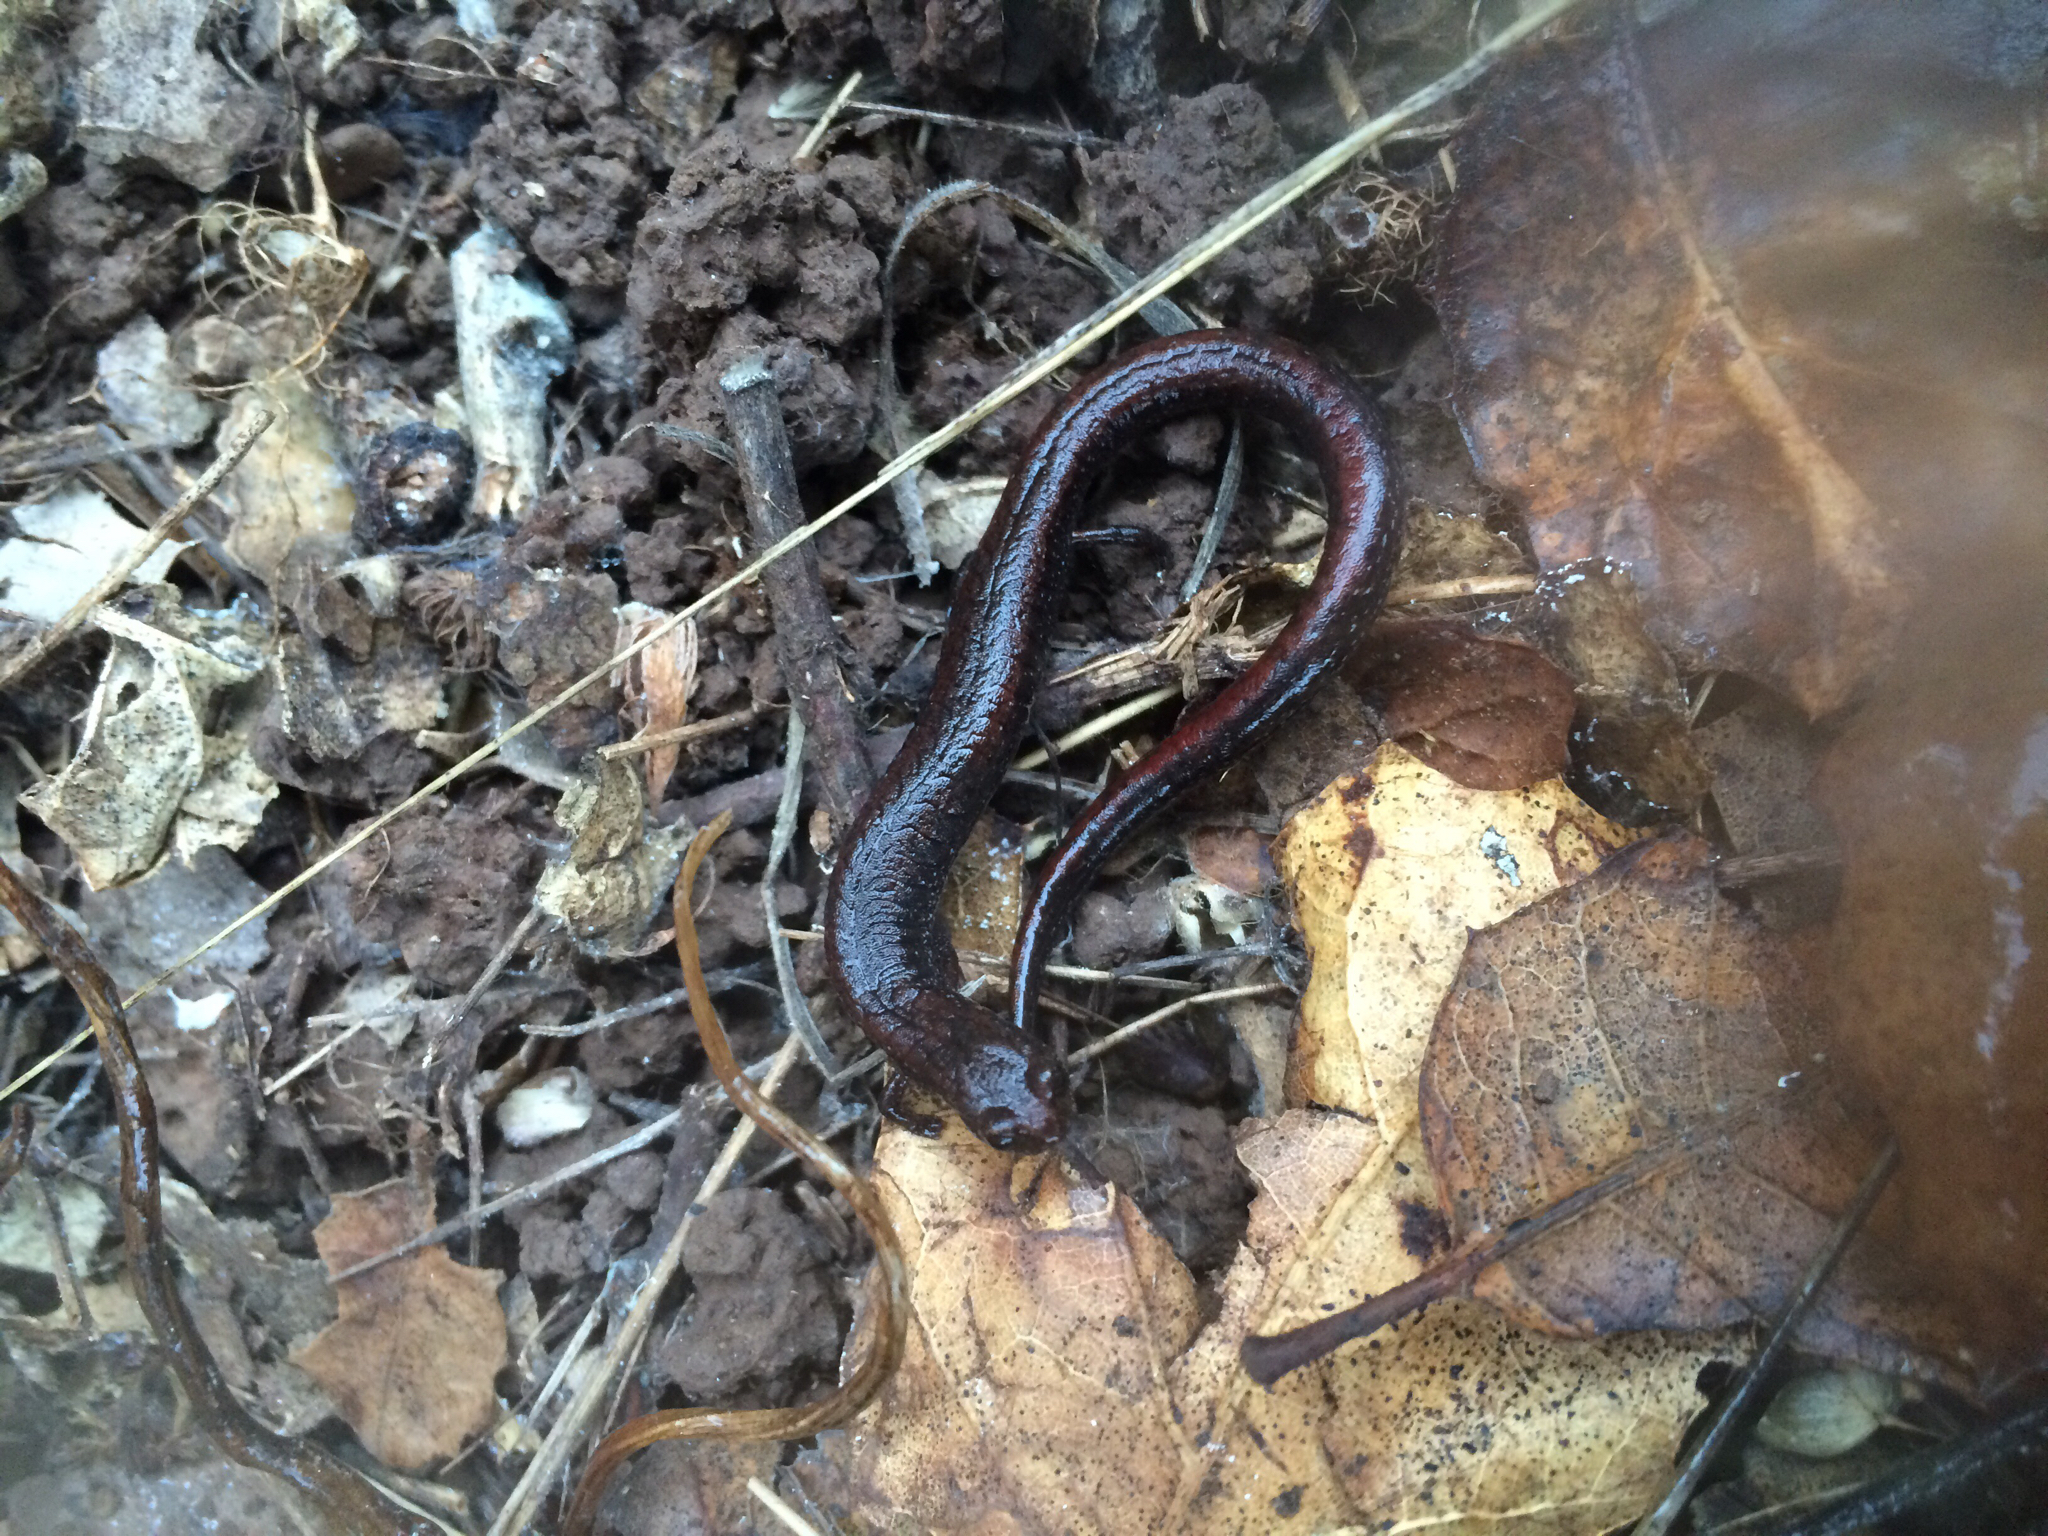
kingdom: Animalia
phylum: Chordata
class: Amphibia
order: Caudata
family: Plethodontidae
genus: Batrachoseps
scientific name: Batrachoseps attenuatus
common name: California slender salamander
